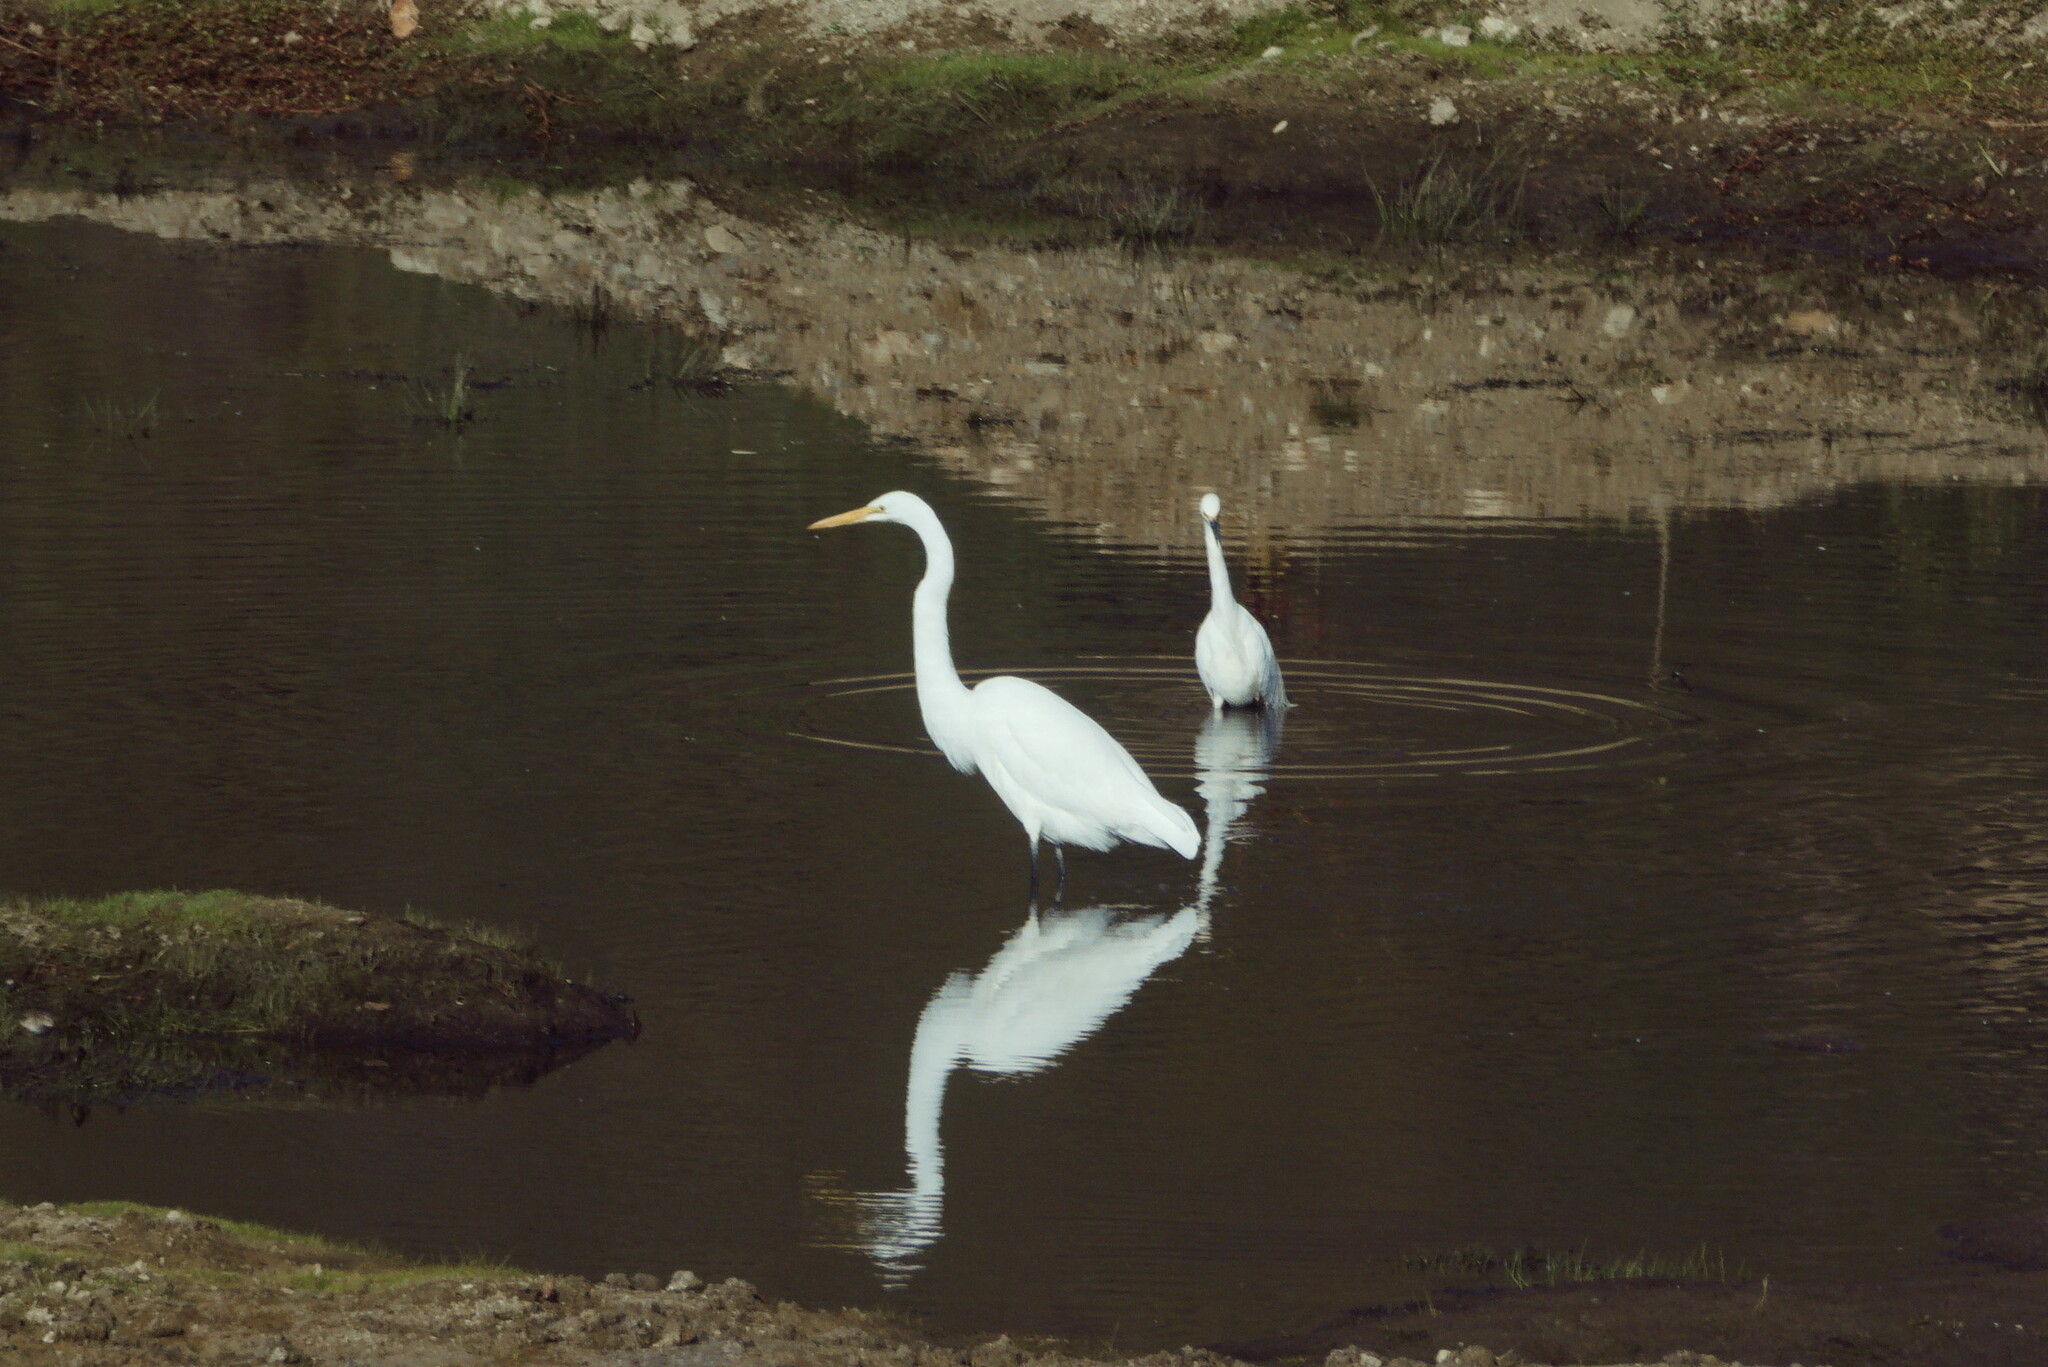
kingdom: Animalia
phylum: Chordata
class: Aves
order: Pelecaniformes
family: Ardeidae
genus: Egretta
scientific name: Egretta thula
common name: Snowy egret
